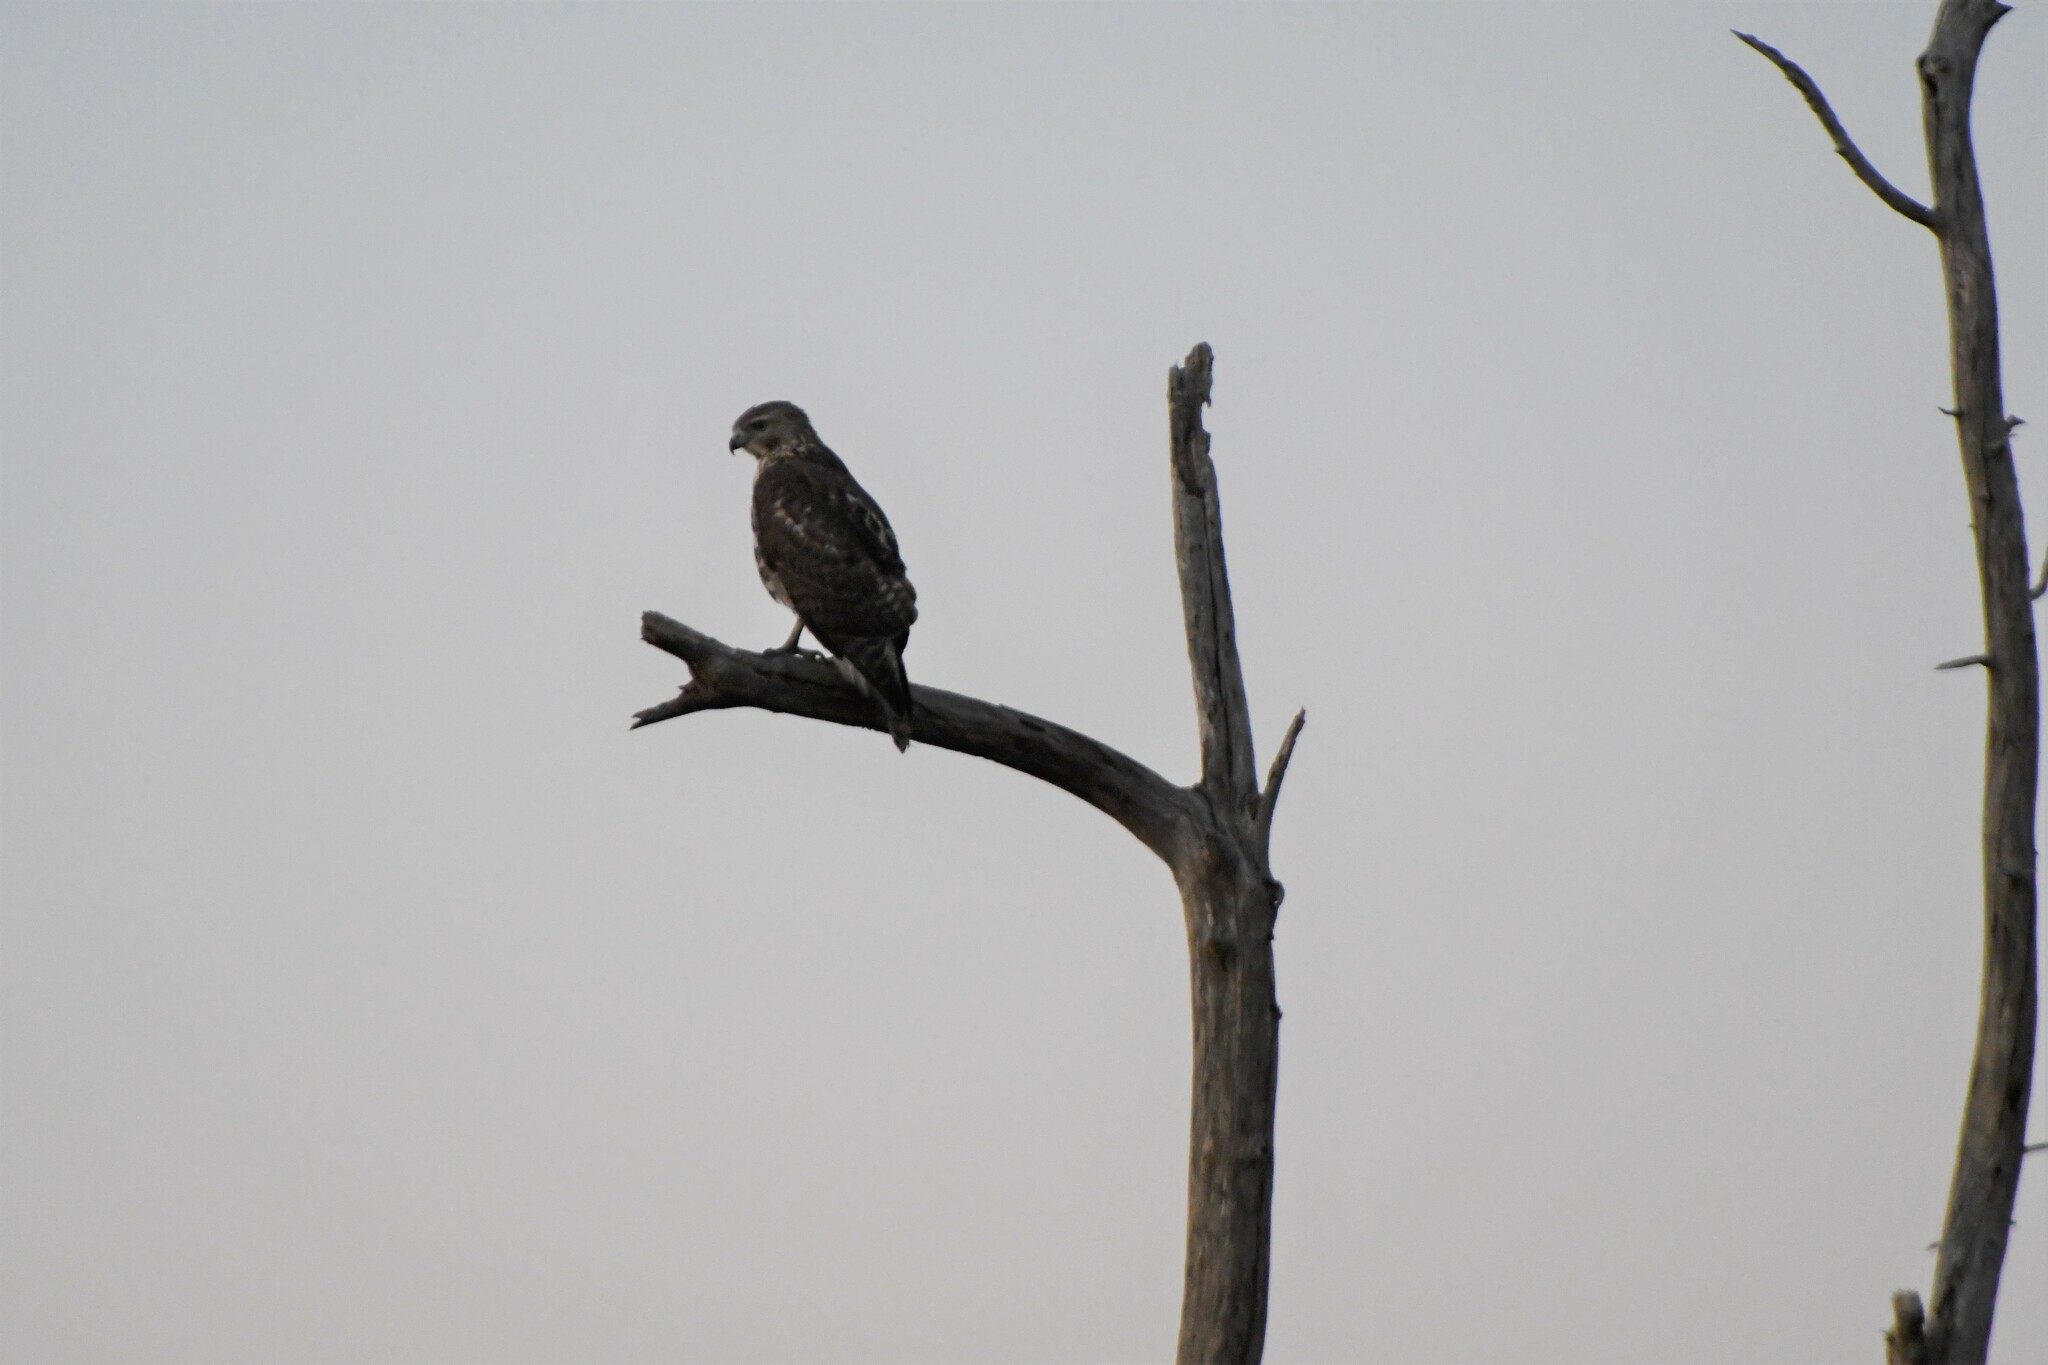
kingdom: Animalia
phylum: Chordata
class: Aves
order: Accipitriformes
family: Accipitridae
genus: Buteo
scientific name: Buteo jamaicensis
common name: Red-tailed hawk
